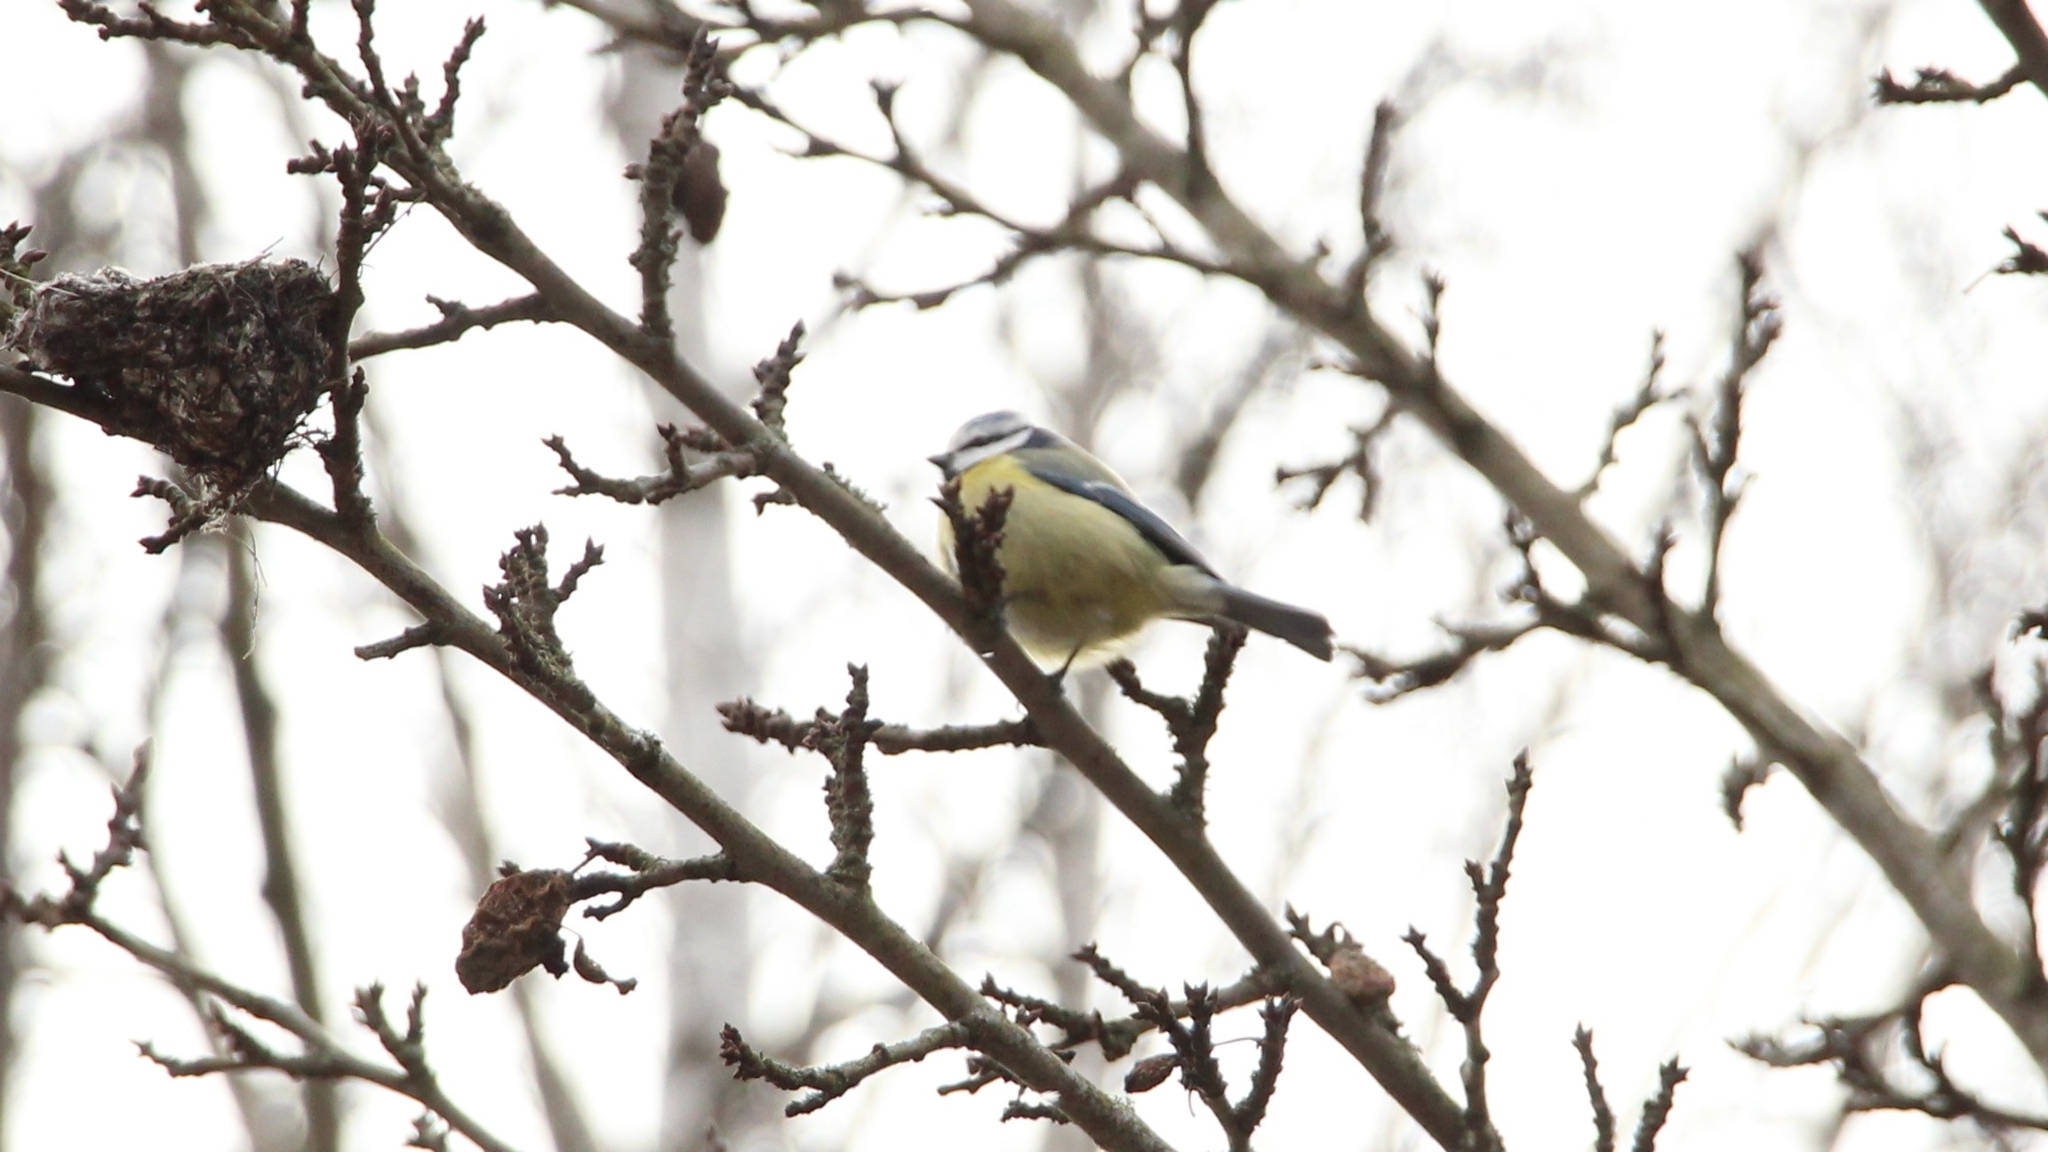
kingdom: Animalia
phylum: Chordata
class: Aves
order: Passeriformes
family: Paridae
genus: Cyanistes
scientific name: Cyanistes caeruleus
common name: Eurasian blue tit
